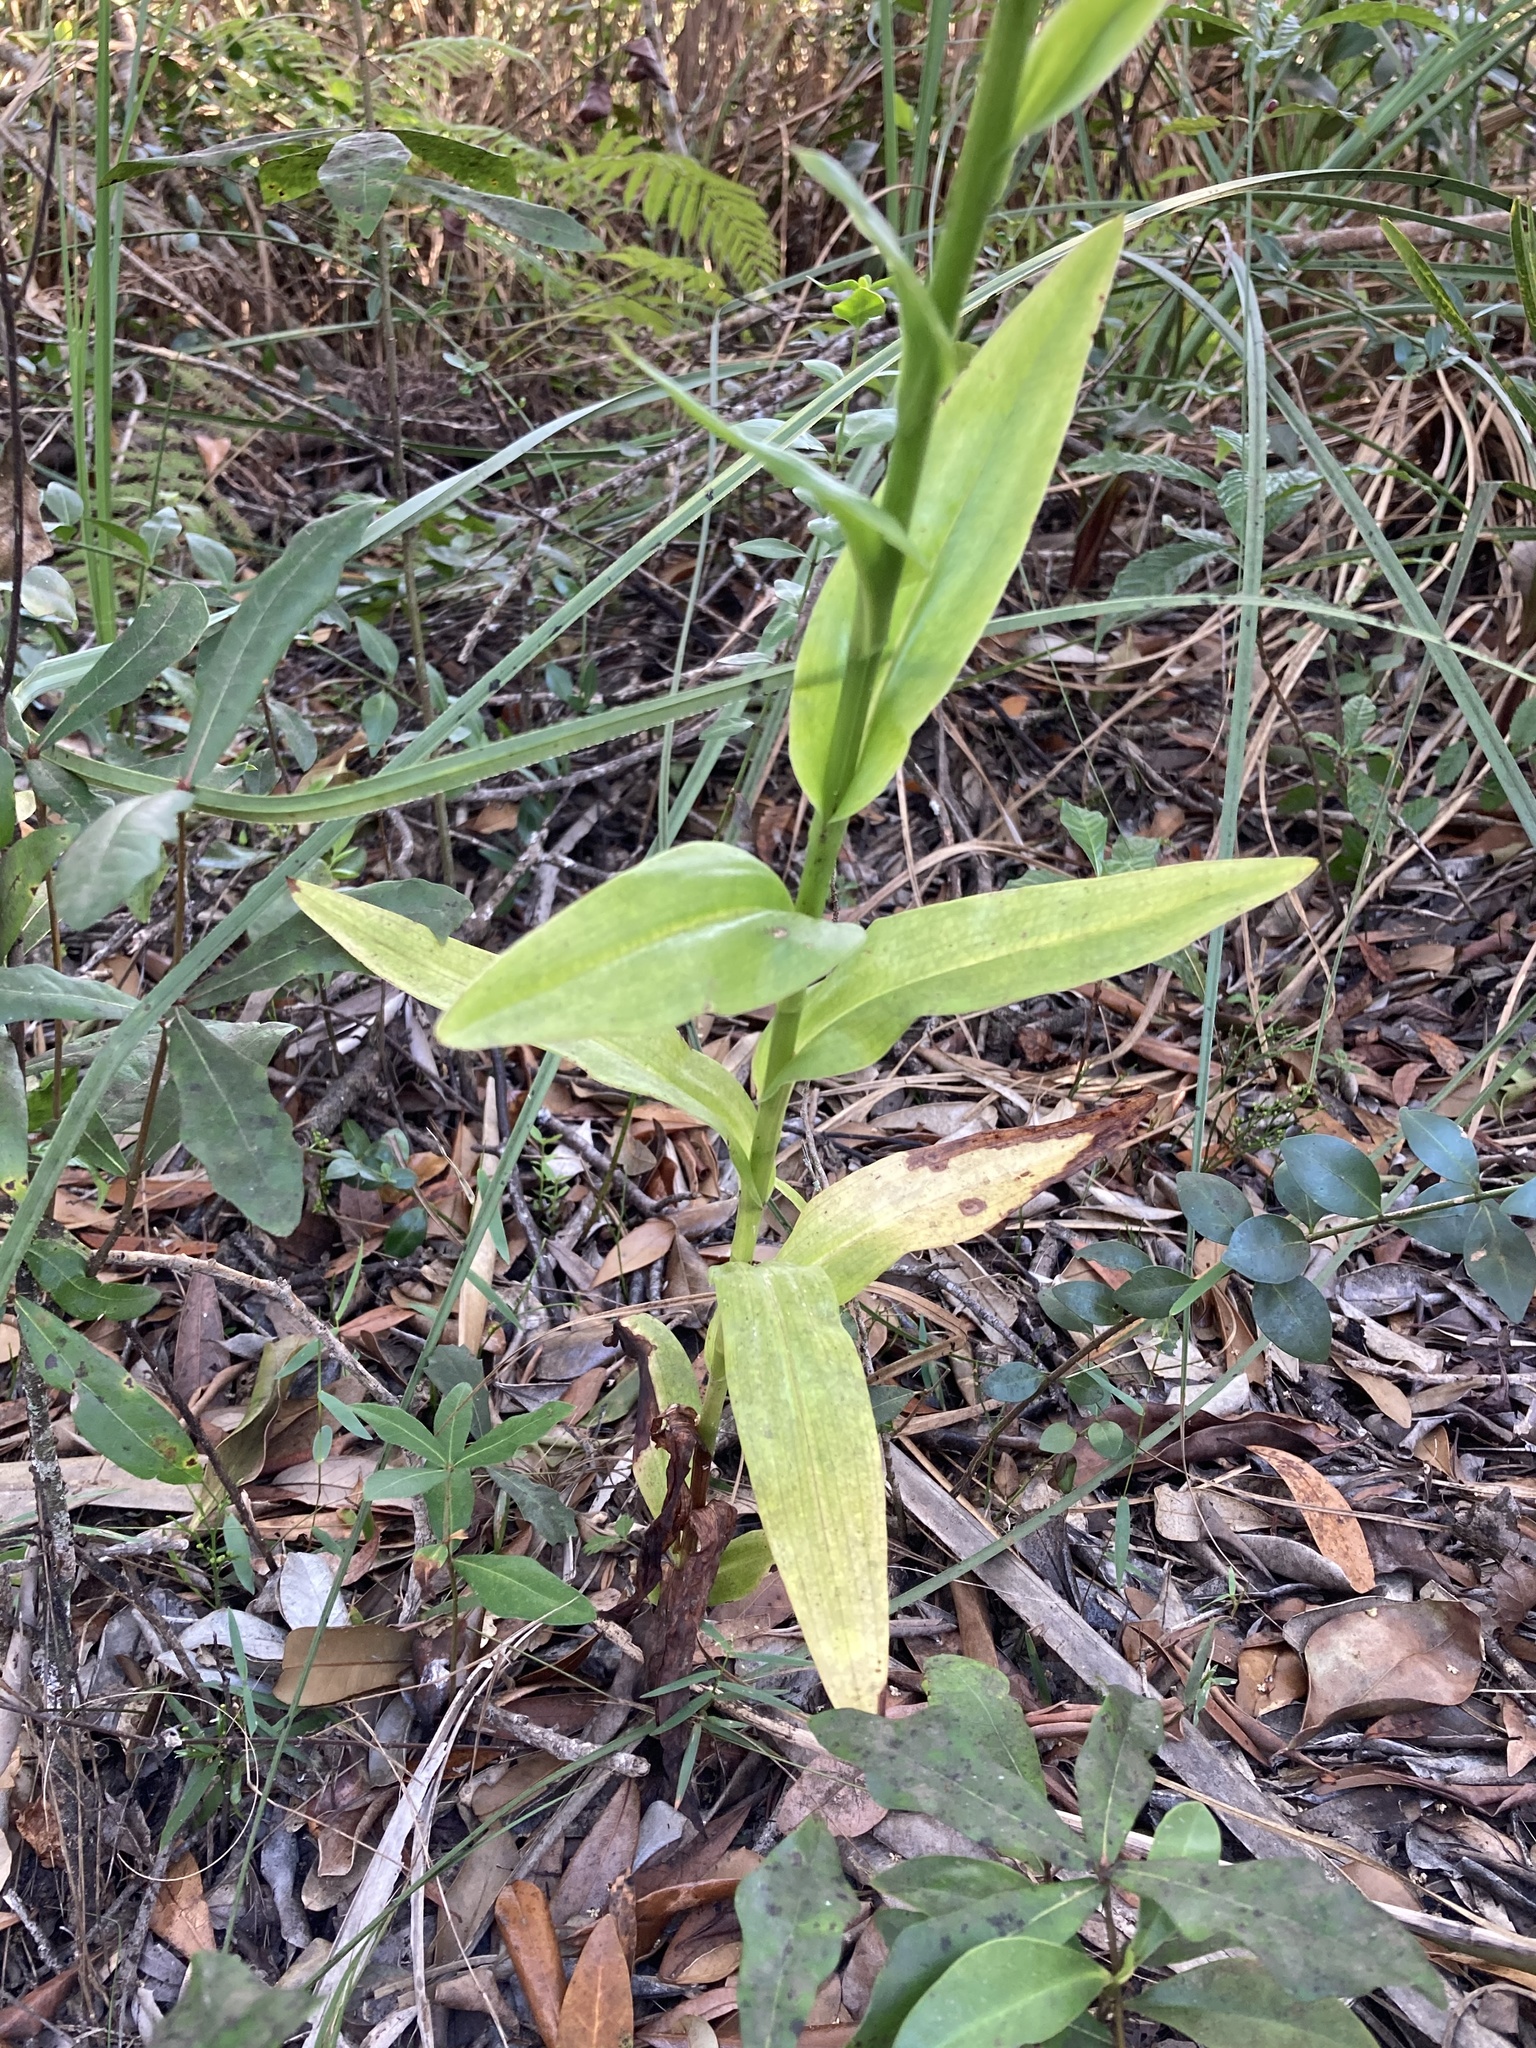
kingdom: Plantae
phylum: Tracheophyta
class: Liliopsida
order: Asparagales
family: Orchidaceae
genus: Habenaria
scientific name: Habenaria floribunda
